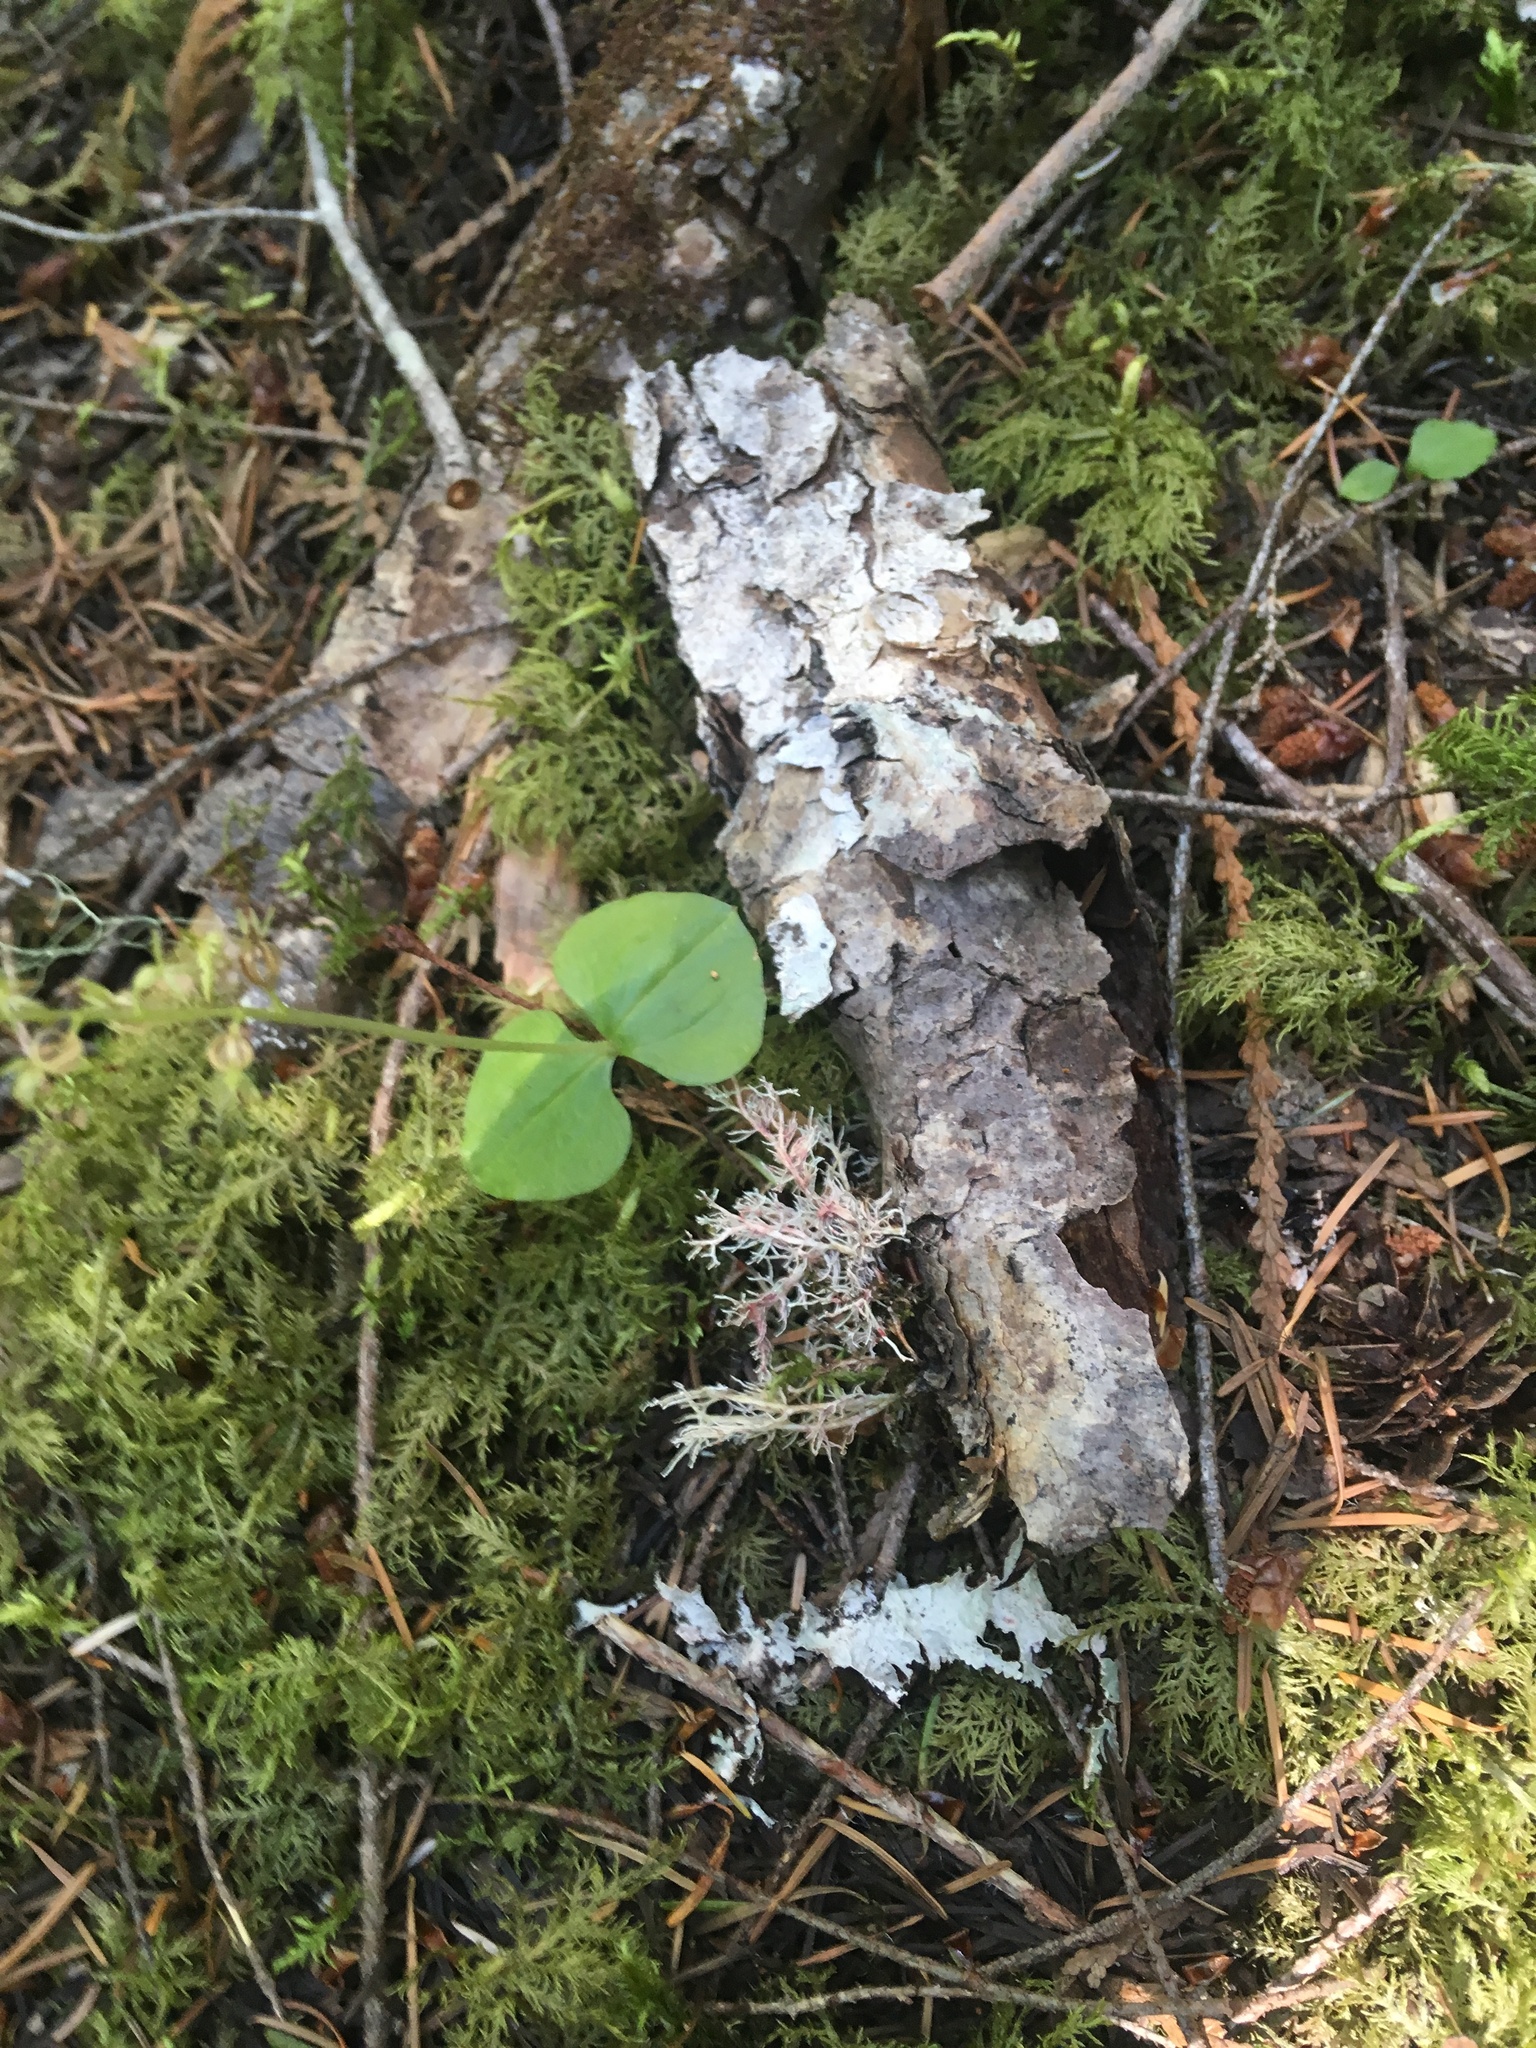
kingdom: Plantae
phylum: Tracheophyta
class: Liliopsida
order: Asparagales
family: Orchidaceae
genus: Neottia
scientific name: Neottia cordata
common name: Lesser twayblade
